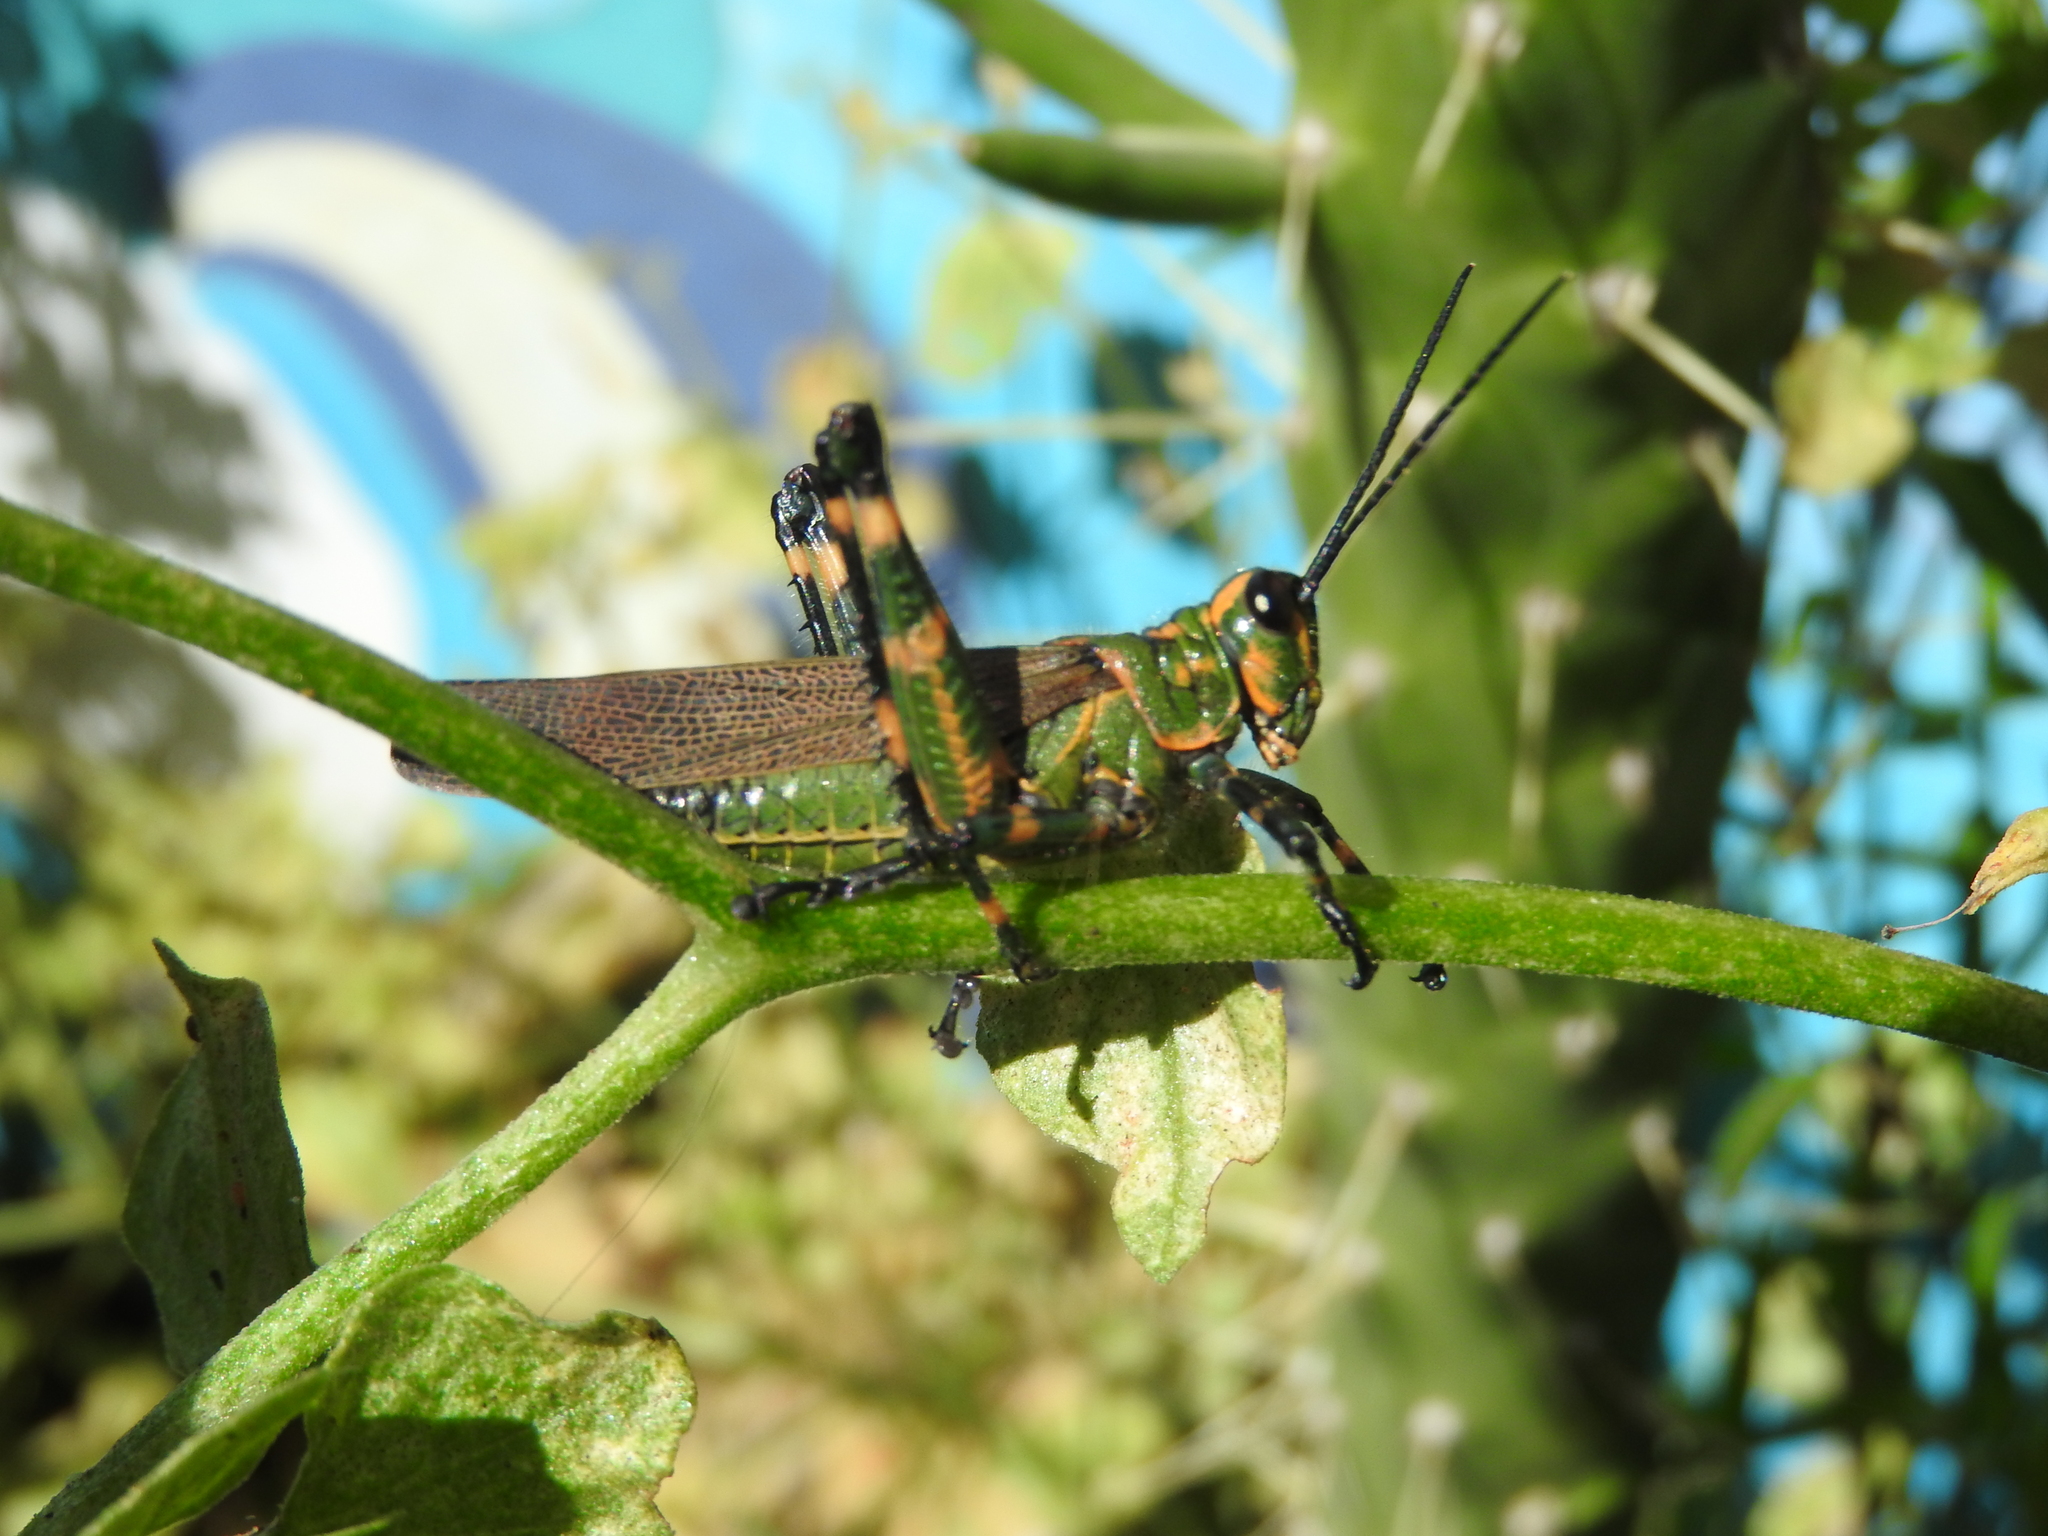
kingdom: Animalia
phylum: Arthropoda
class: Insecta
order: Orthoptera
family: Romaleidae
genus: Chromacris
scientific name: Chromacris speciosa
